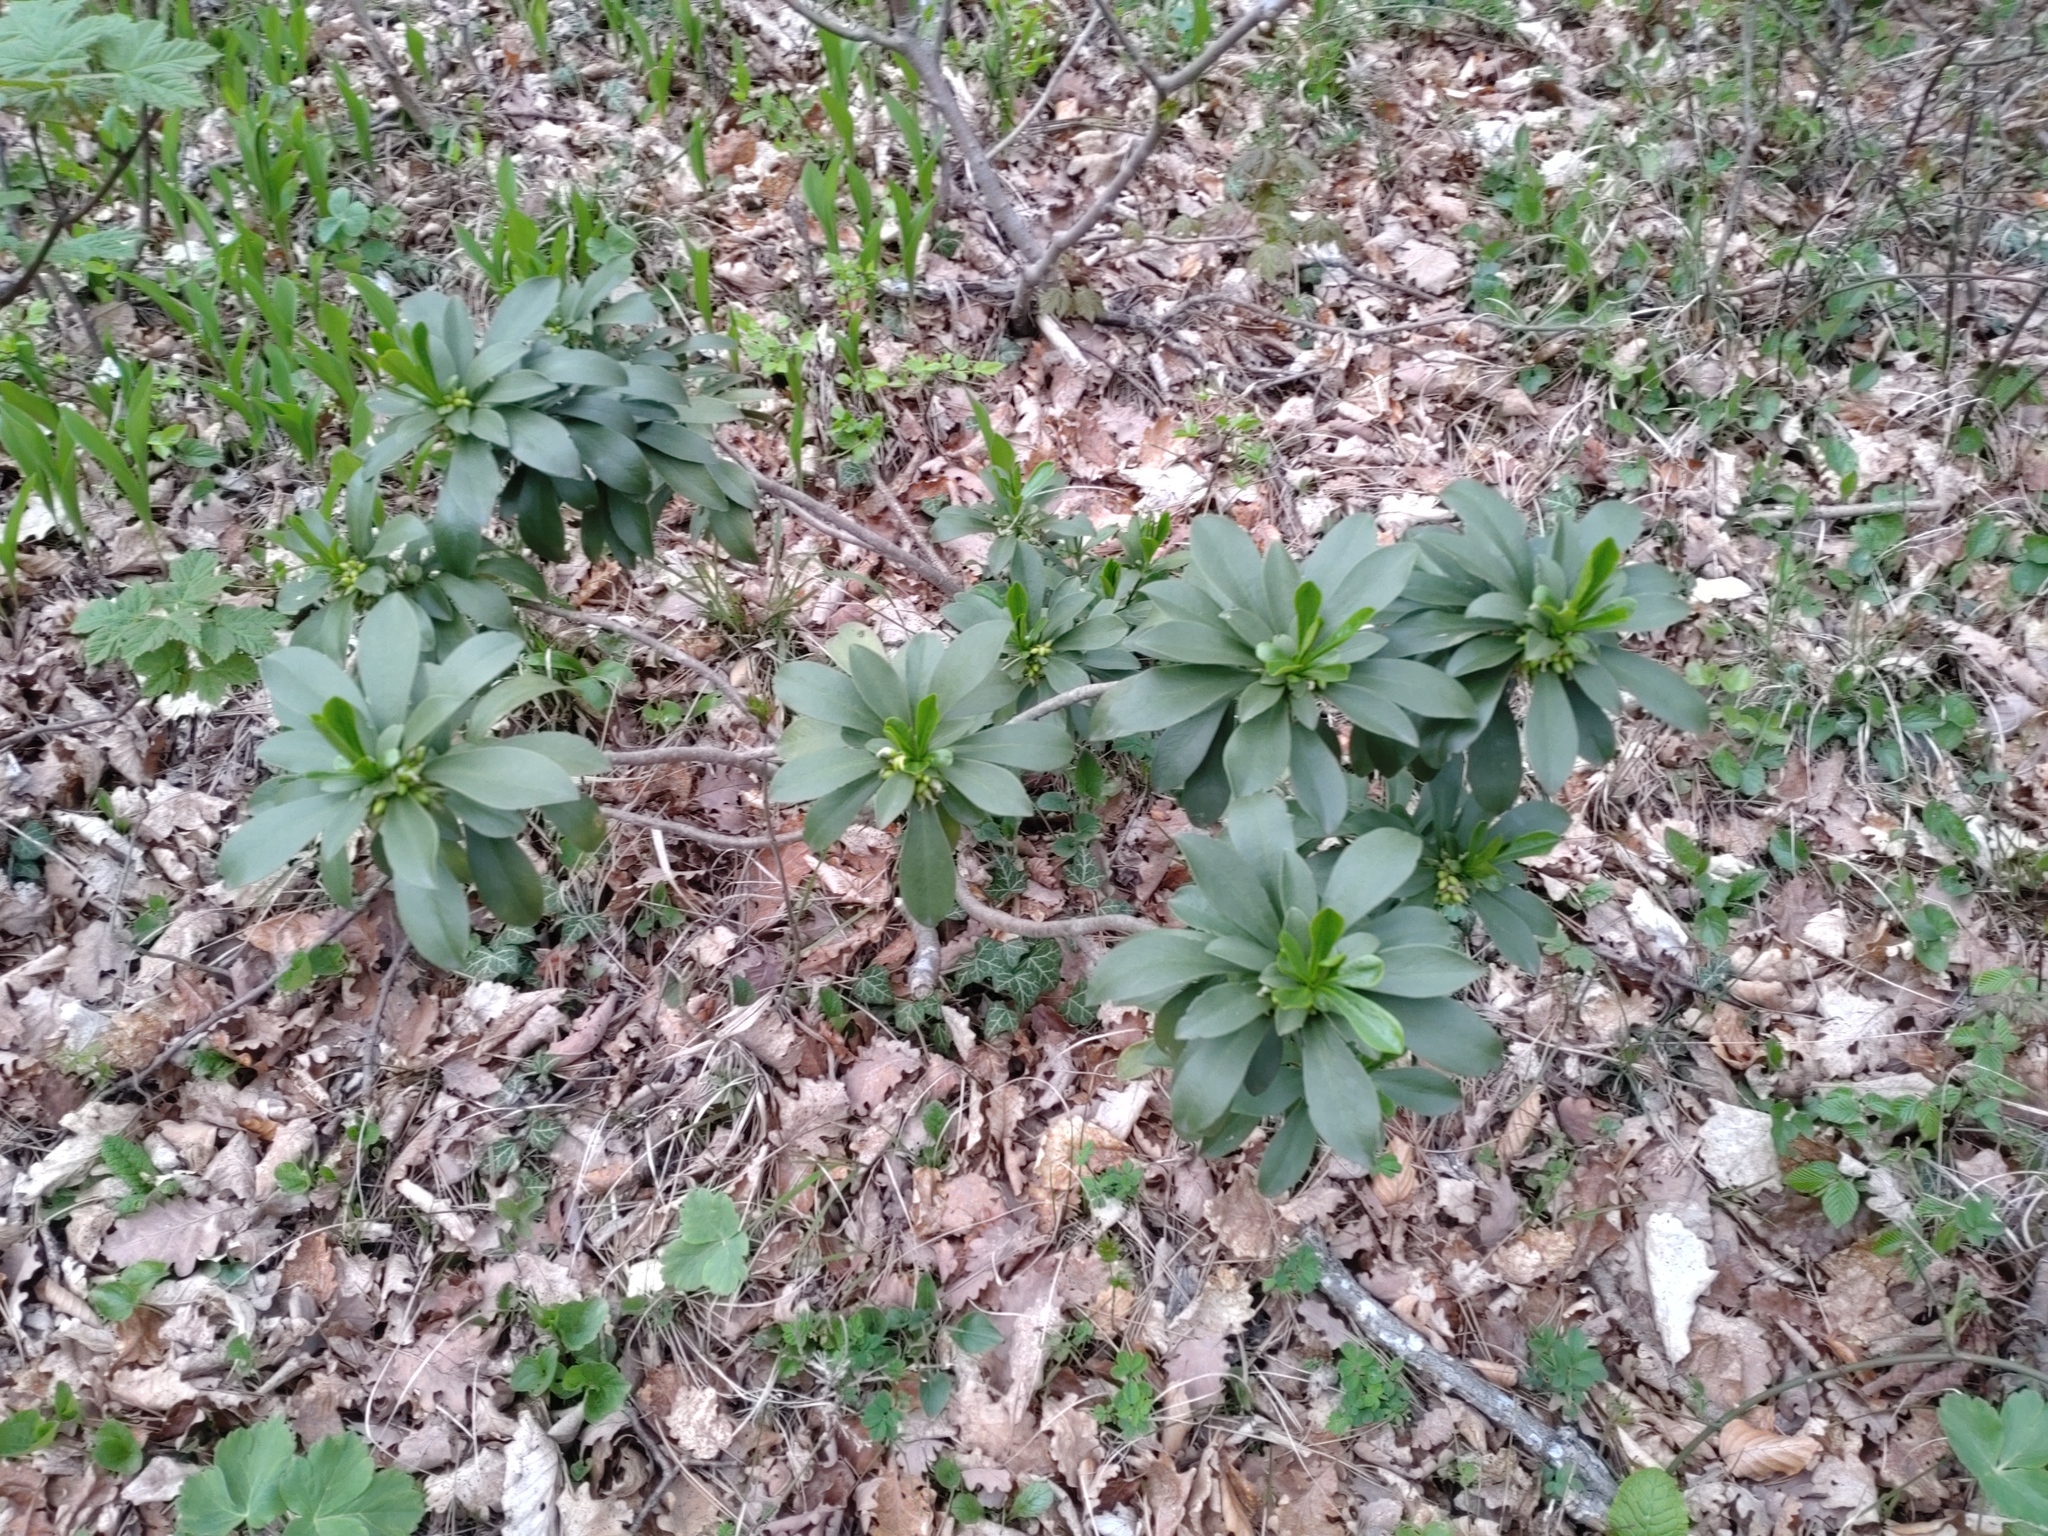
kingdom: Plantae
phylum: Tracheophyta
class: Magnoliopsida
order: Malvales
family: Thymelaeaceae
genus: Daphne
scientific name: Daphne laureola
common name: Spurge-laurel
